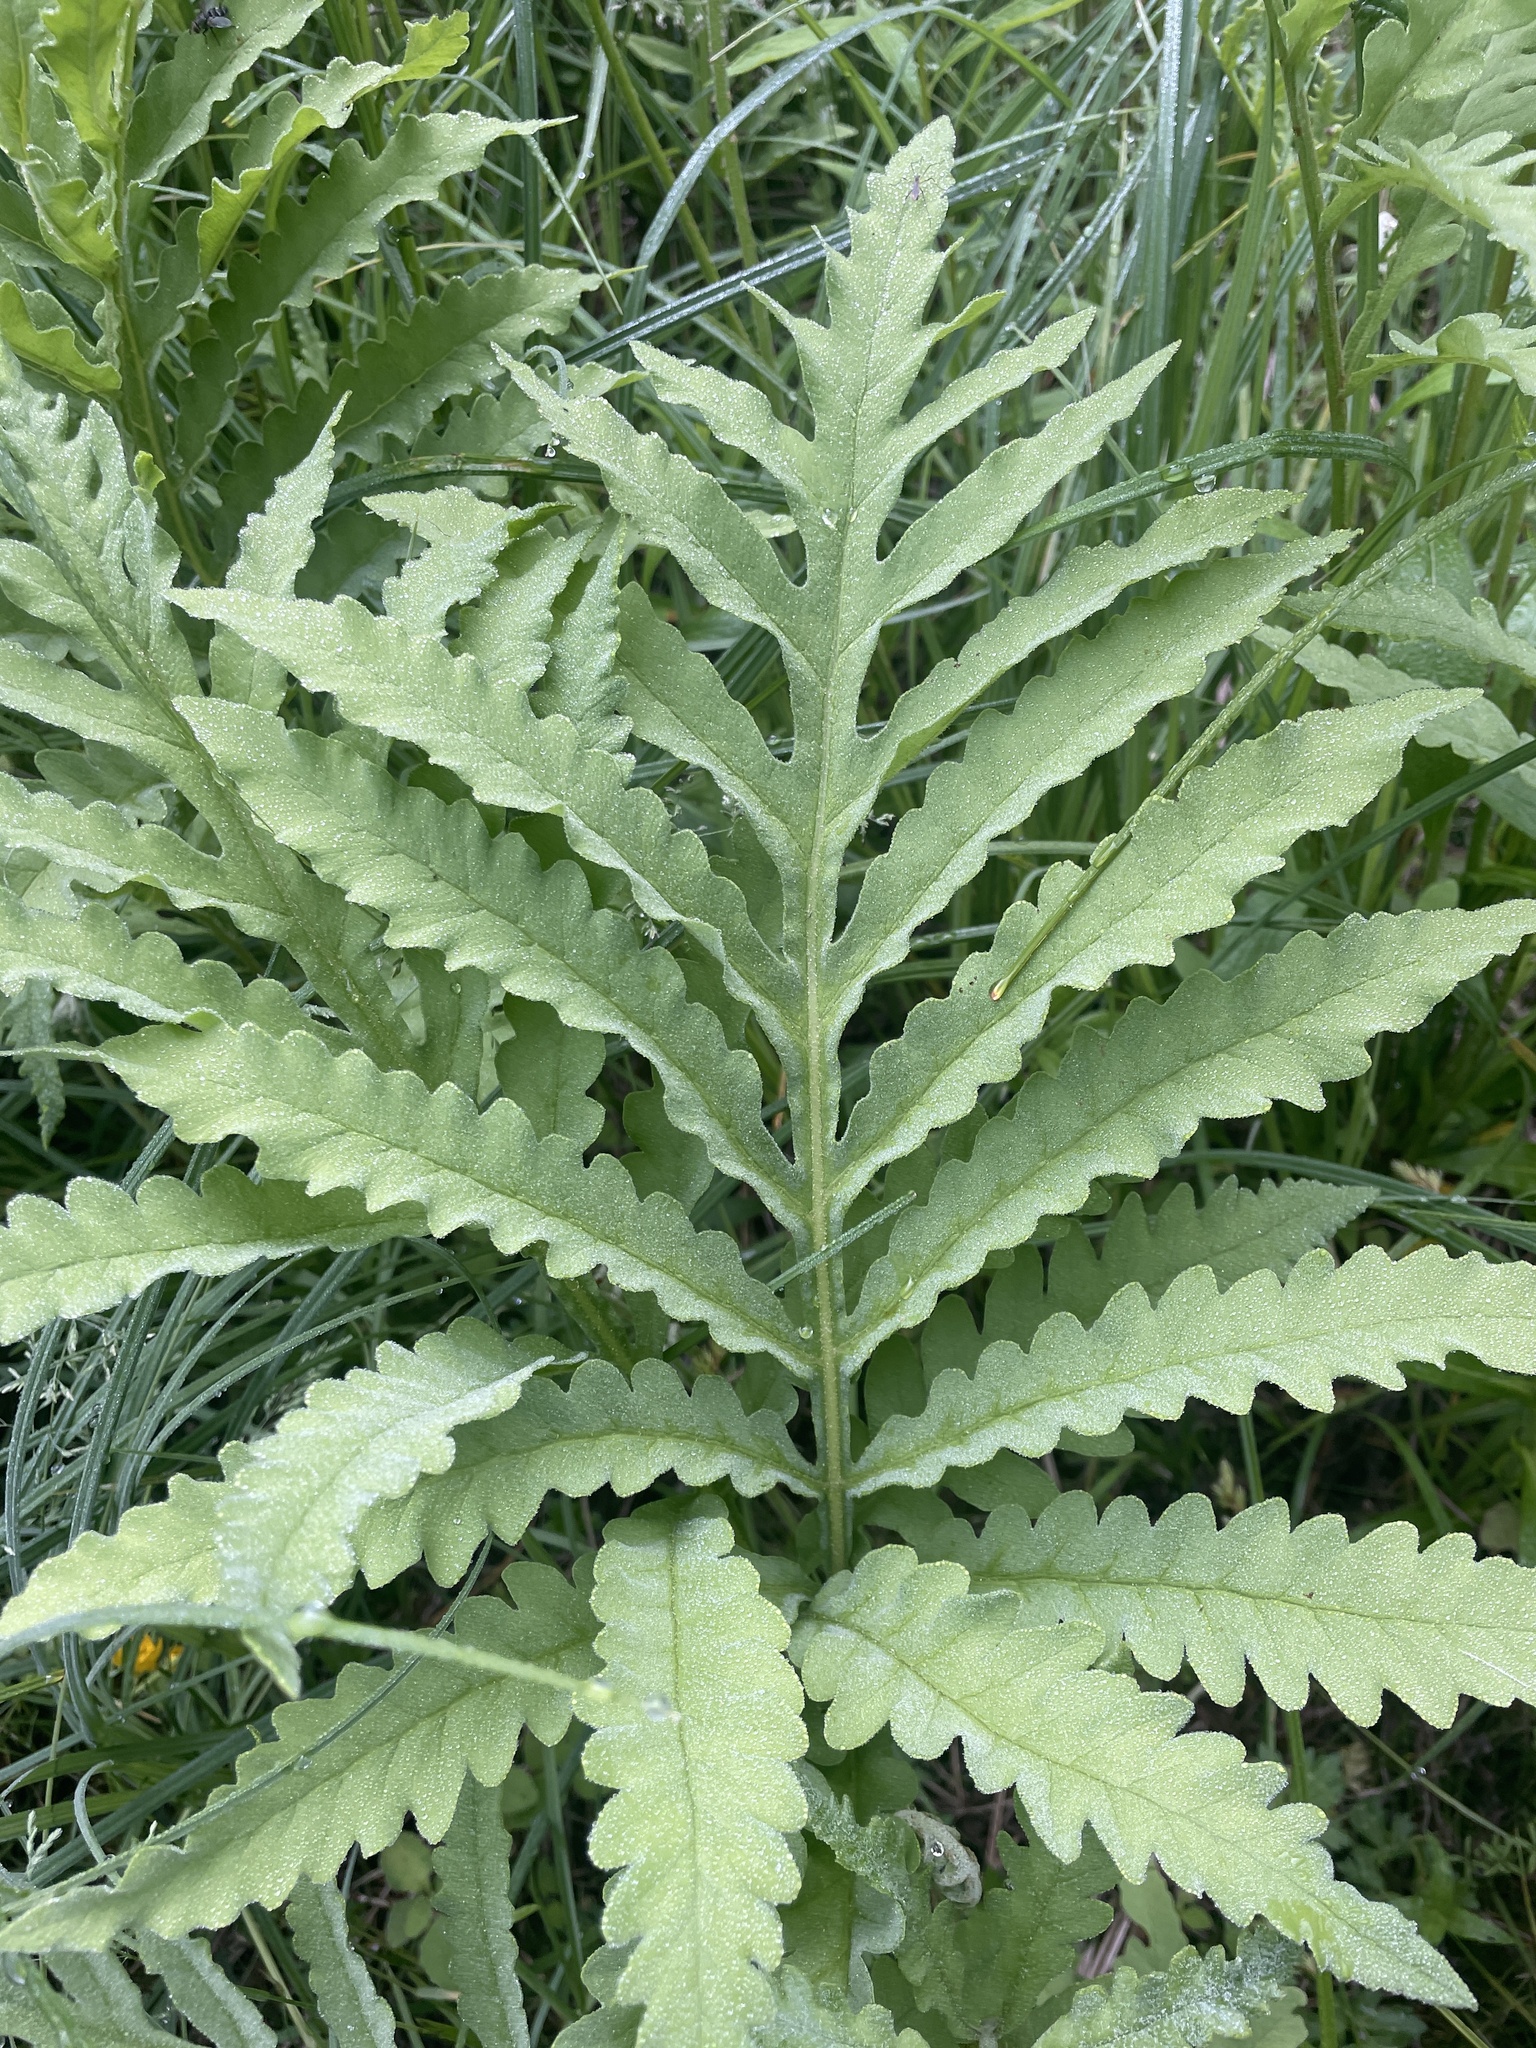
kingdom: Plantae
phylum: Tracheophyta
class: Polypodiopsida
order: Polypodiales
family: Onocleaceae
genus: Onoclea
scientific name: Onoclea sensibilis
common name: Sensitive fern
